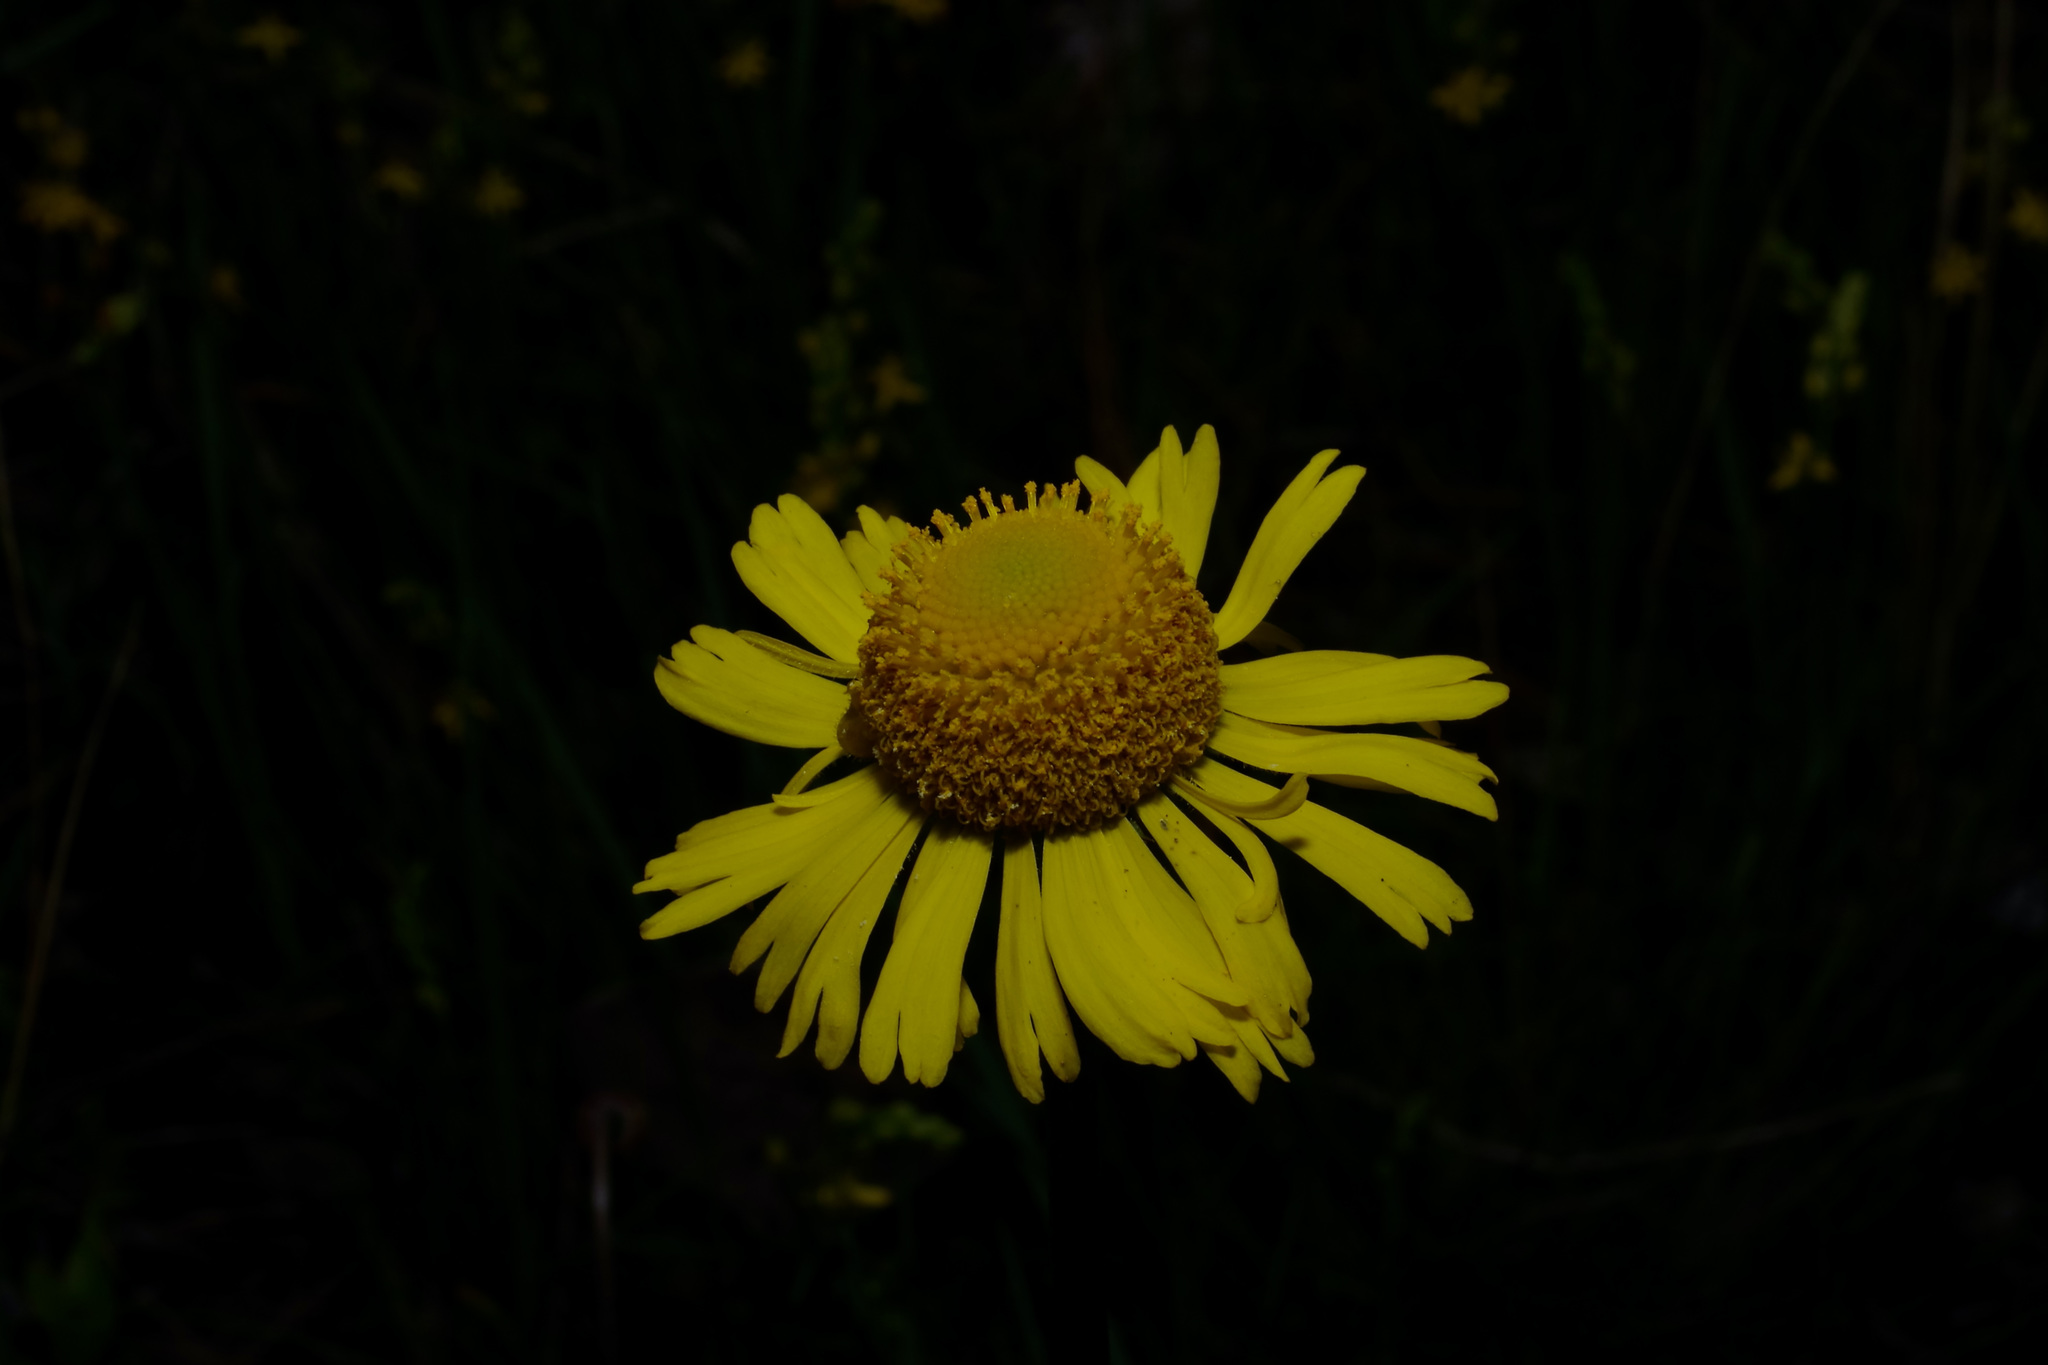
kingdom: Plantae
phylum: Tracheophyta
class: Magnoliopsida
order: Asterales
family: Asteraceae
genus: Helenium
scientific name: Helenium drummondii
